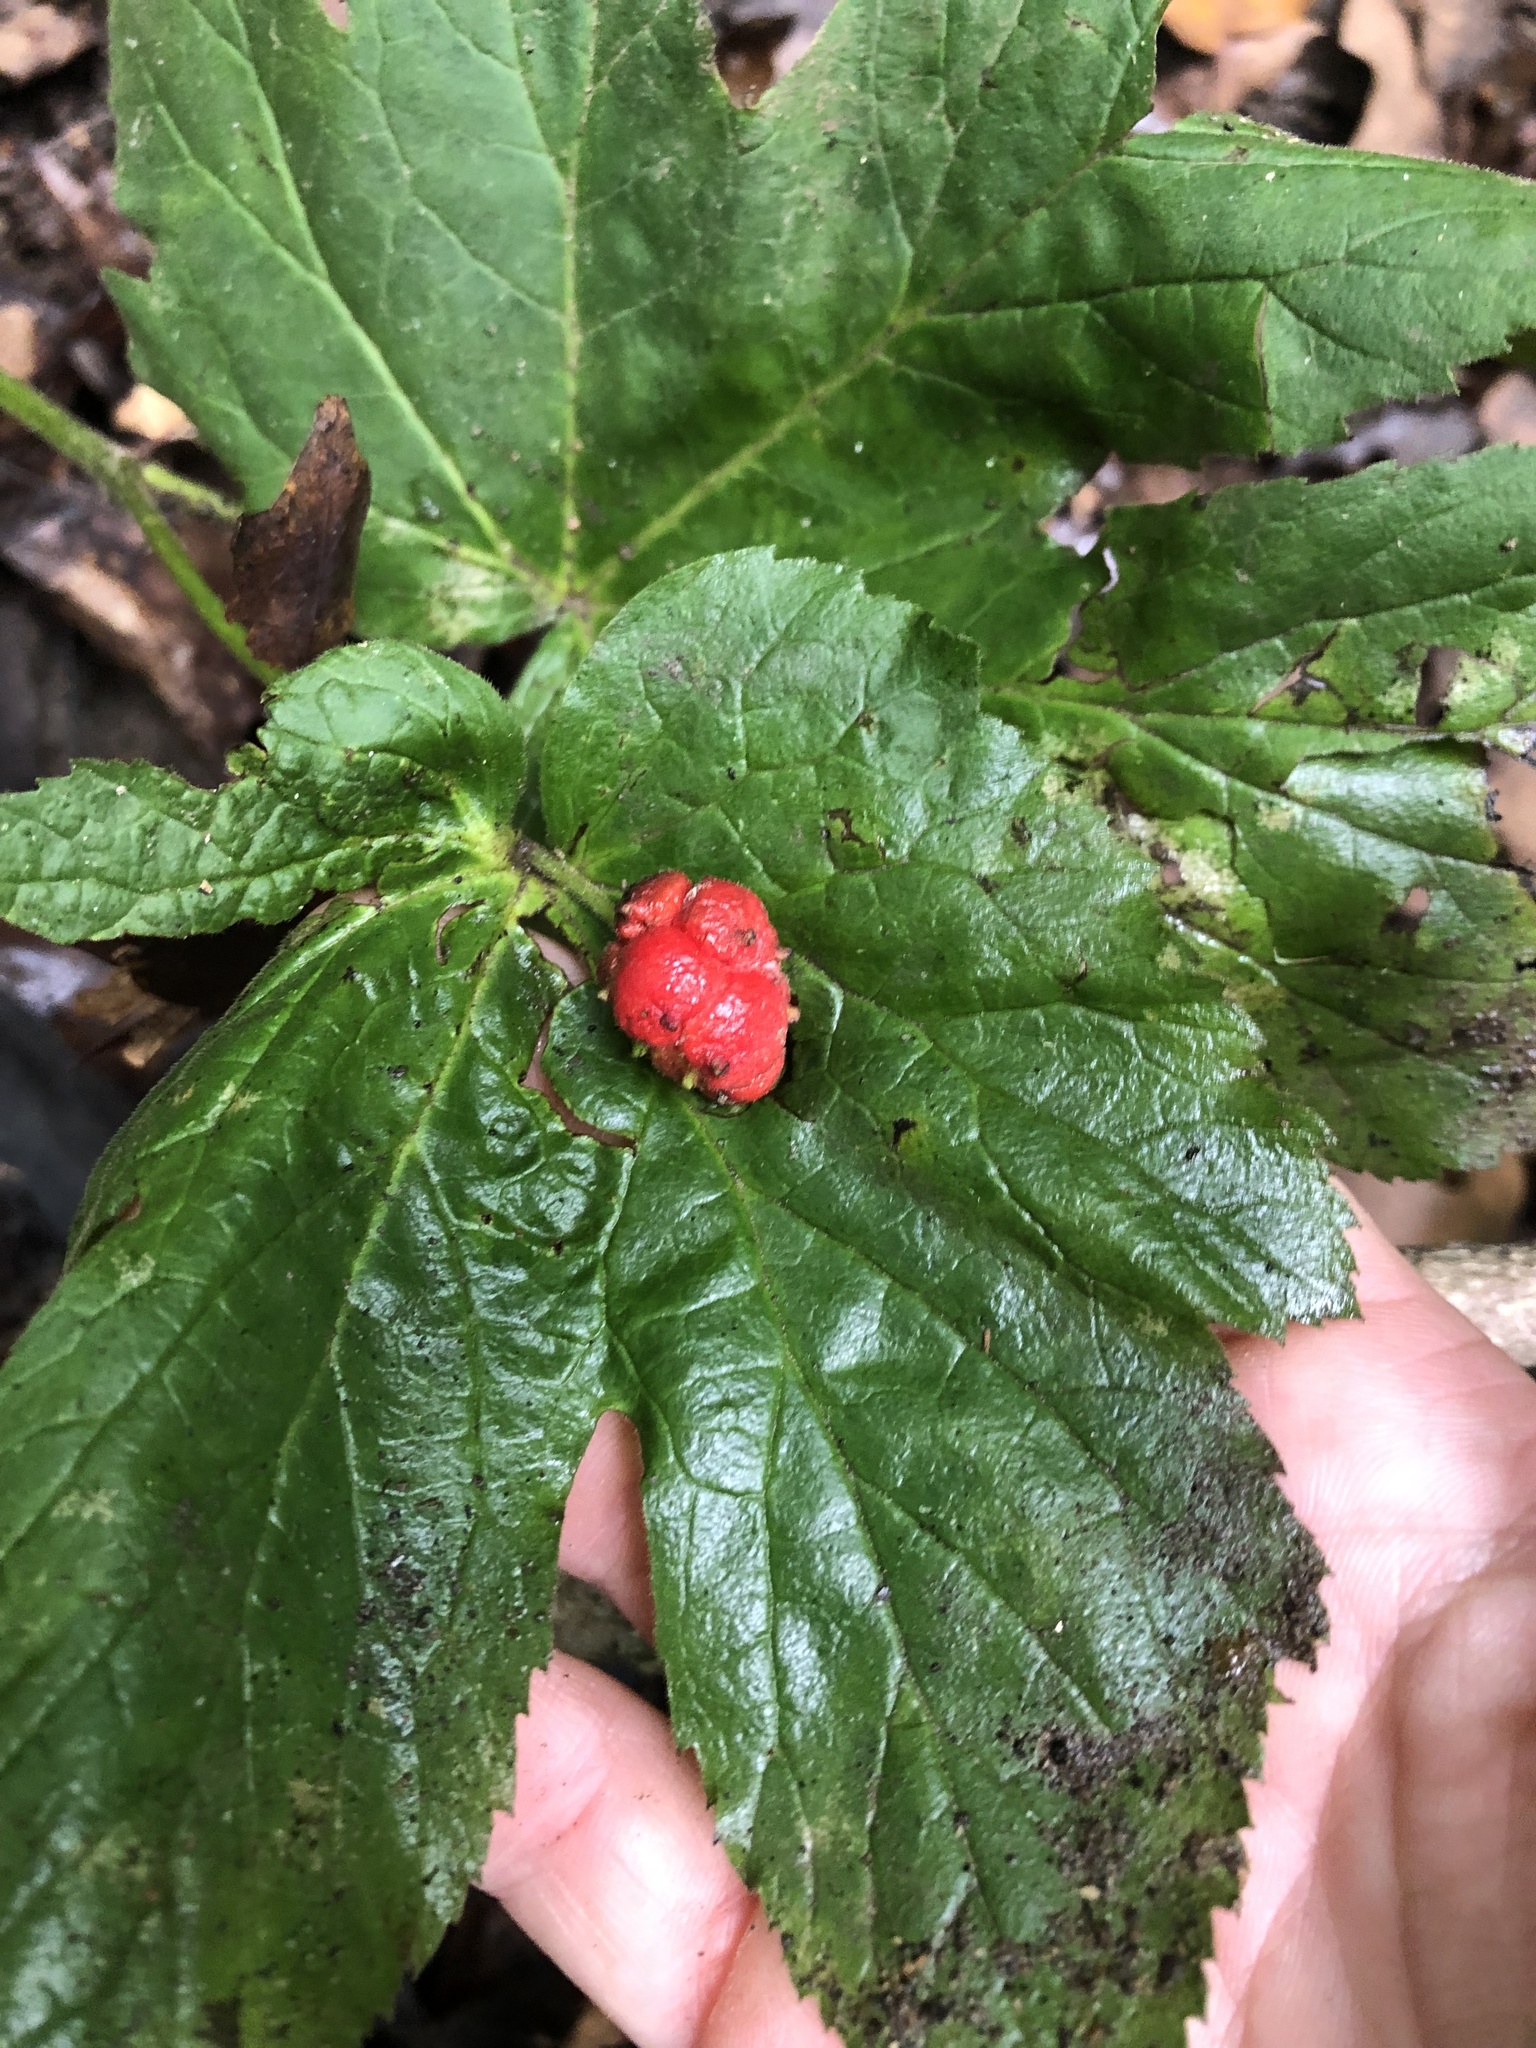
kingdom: Plantae
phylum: Tracheophyta
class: Magnoliopsida
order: Ranunculales
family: Ranunculaceae
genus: Hydrastis
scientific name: Hydrastis canadensis
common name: Goldenseal
